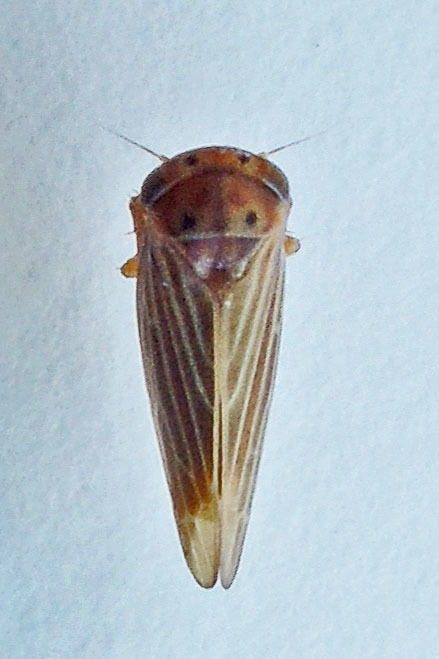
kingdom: Animalia
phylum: Arthropoda
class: Insecta
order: Hemiptera
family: Cicadellidae
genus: Agallia
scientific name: Agallia constricta
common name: The constricted leafhopper
